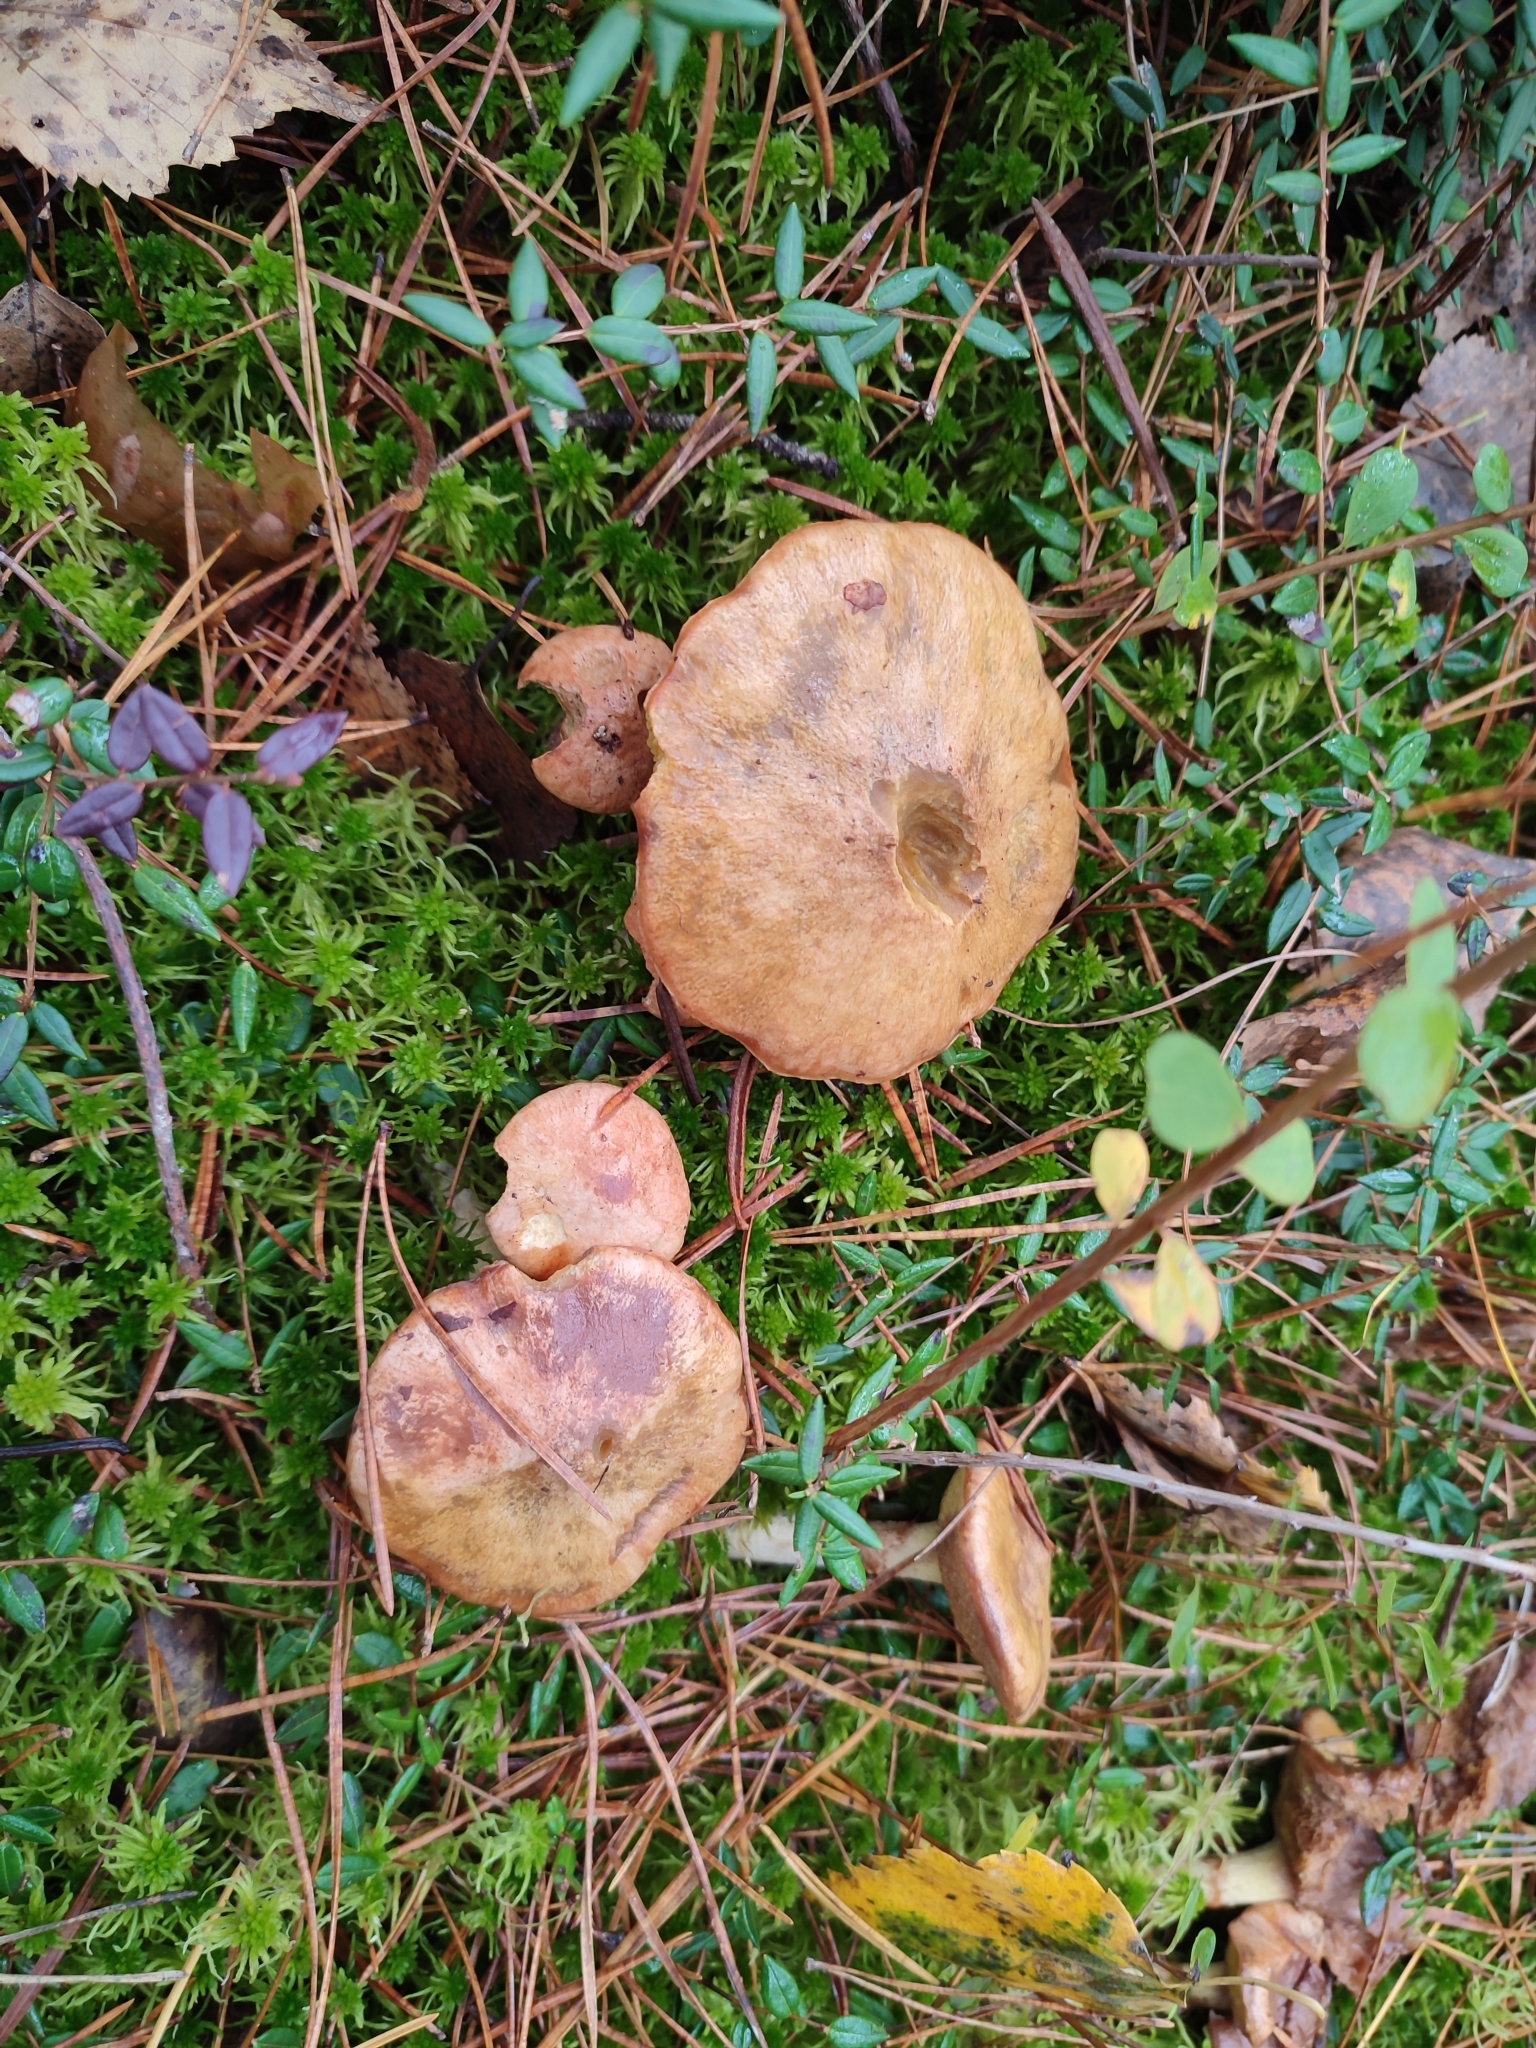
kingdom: Fungi
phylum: Basidiomycota
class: Agaricomycetes
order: Boletales
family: Suillaceae
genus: Suillus
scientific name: Suillus flavidus
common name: Jellied bolete
